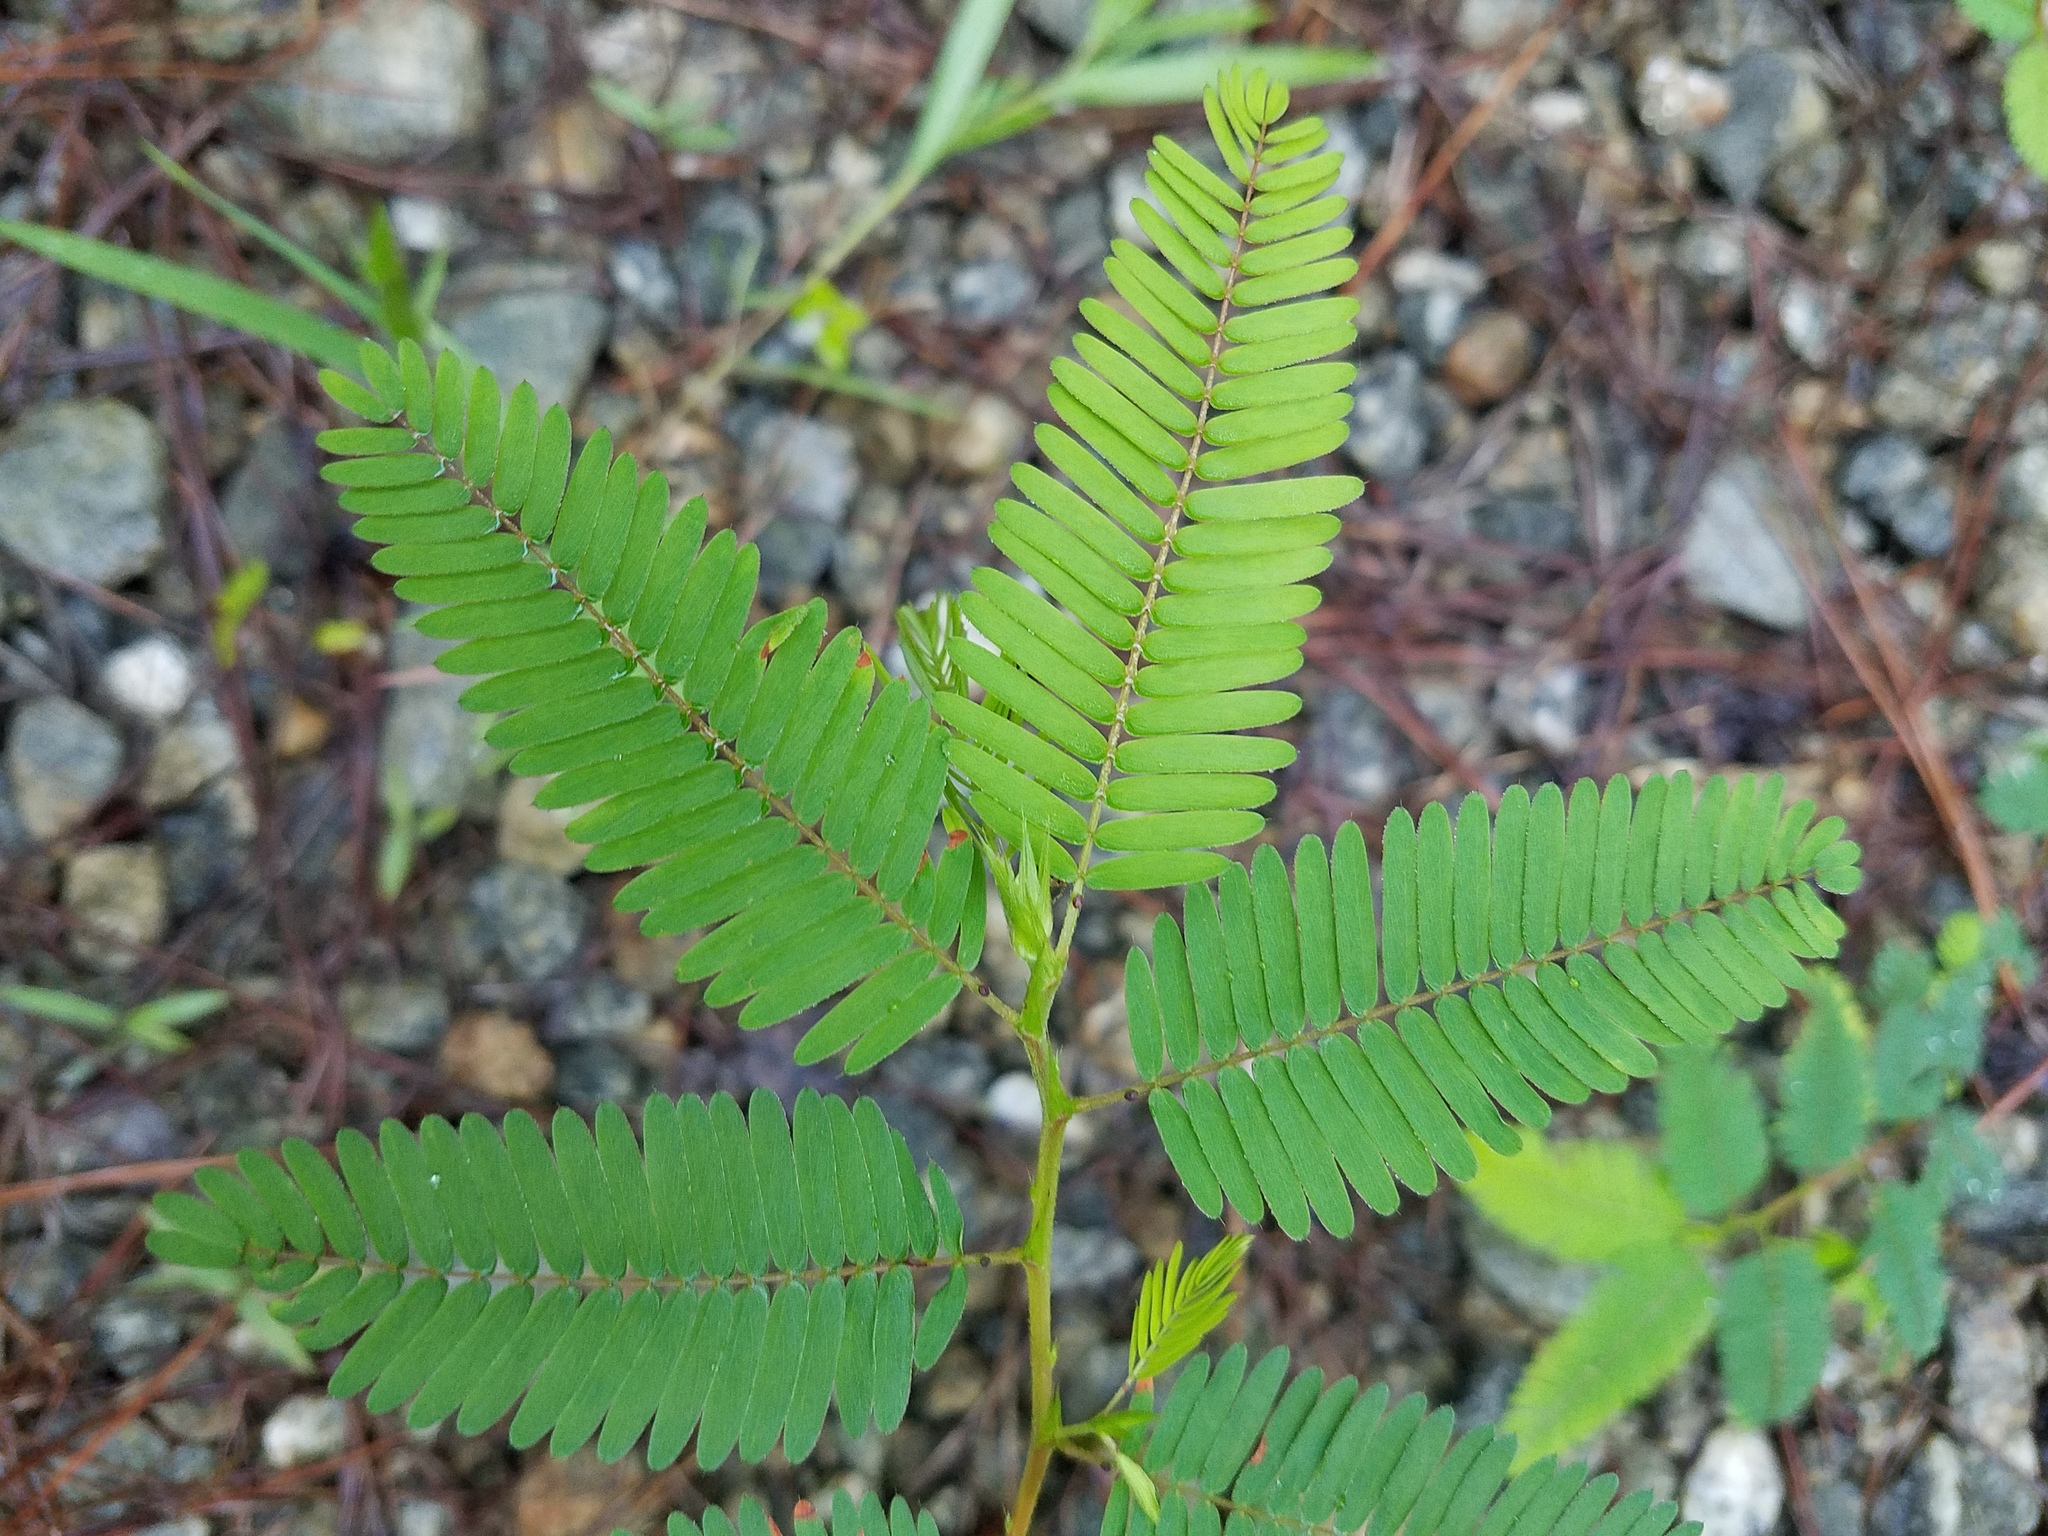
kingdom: Plantae
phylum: Tracheophyta
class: Magnoliopsida
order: Fabales
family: Fabaceae
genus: Chamaecrista
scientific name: Chamaecrista nictitans
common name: Sensitive cassia
